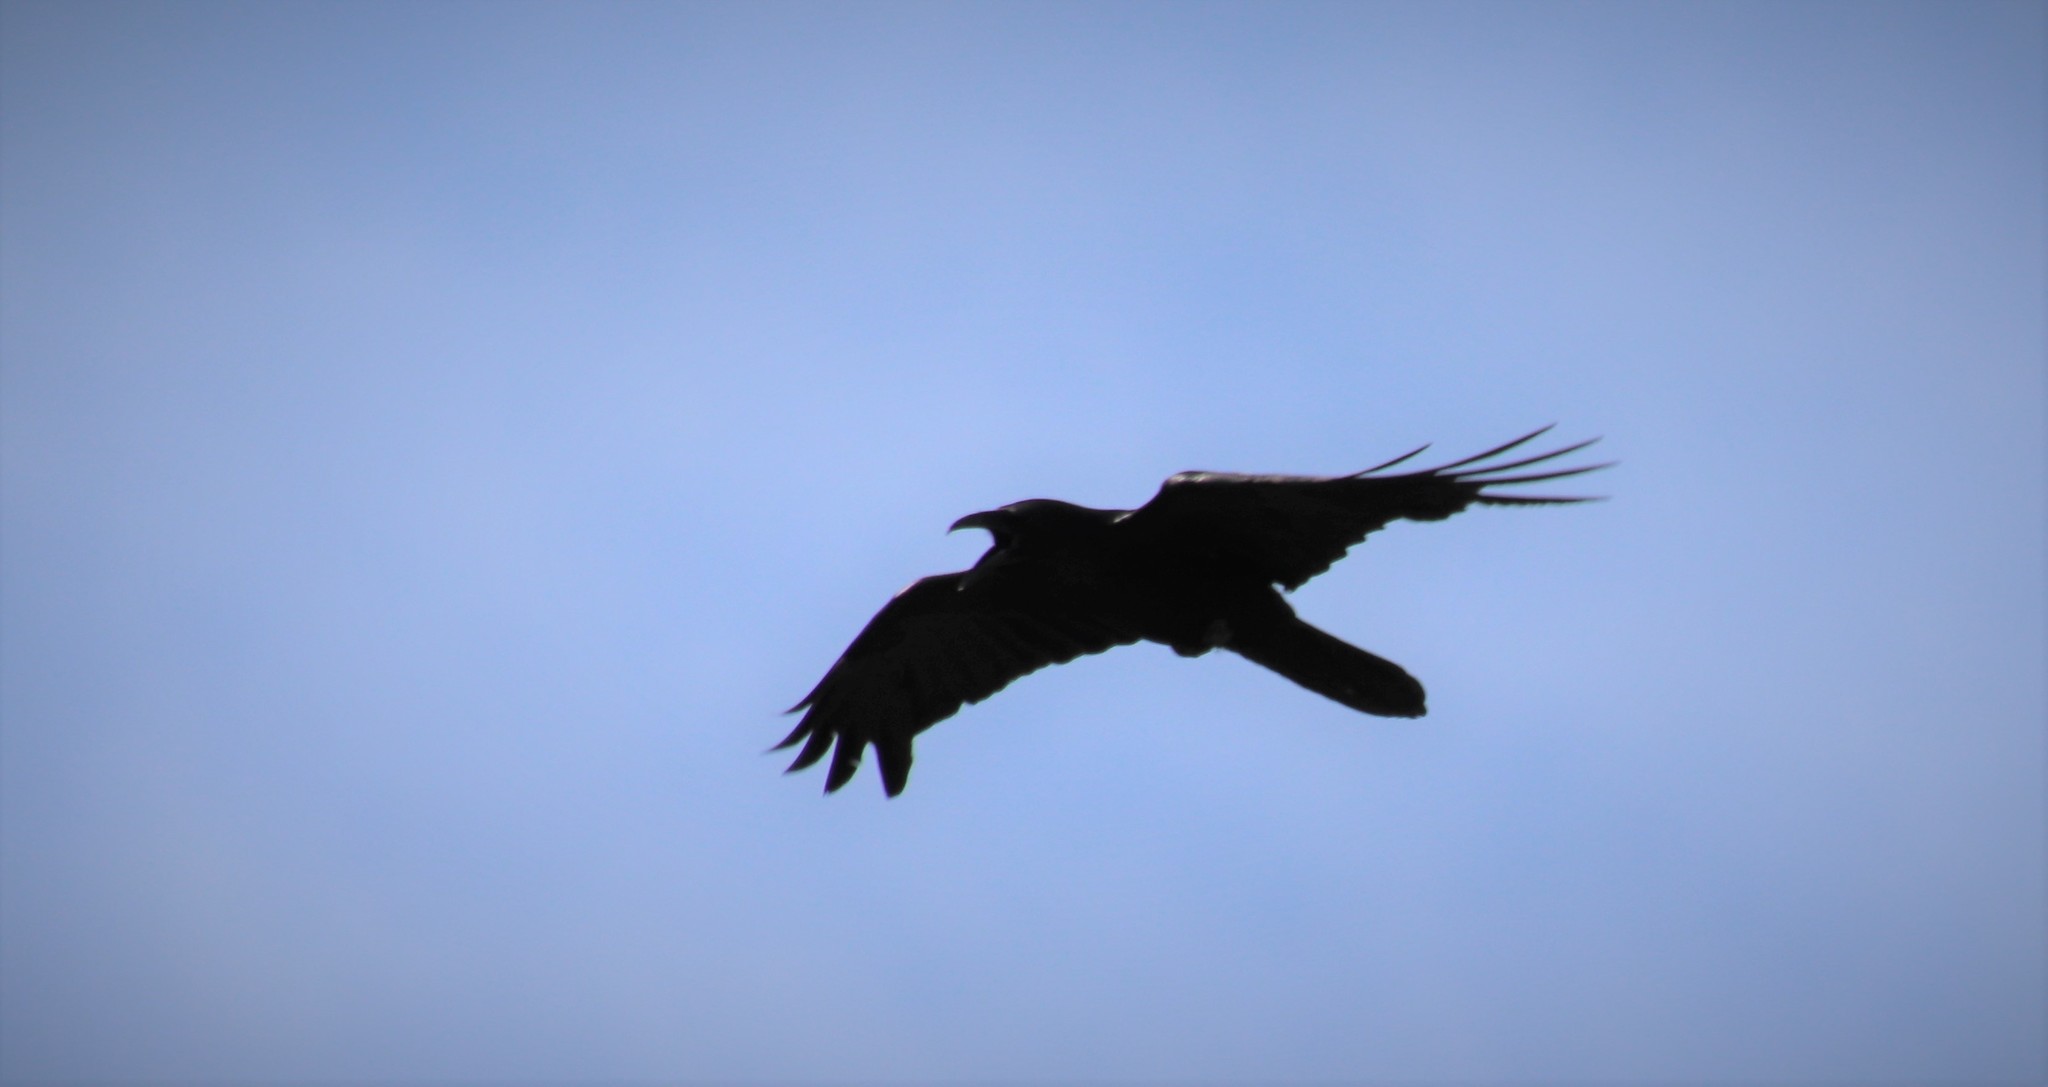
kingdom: Animalia
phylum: Chordata
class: Aves
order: Passeriformes
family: Corvidae
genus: Corvus
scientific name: Corvus corax
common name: Common raven
